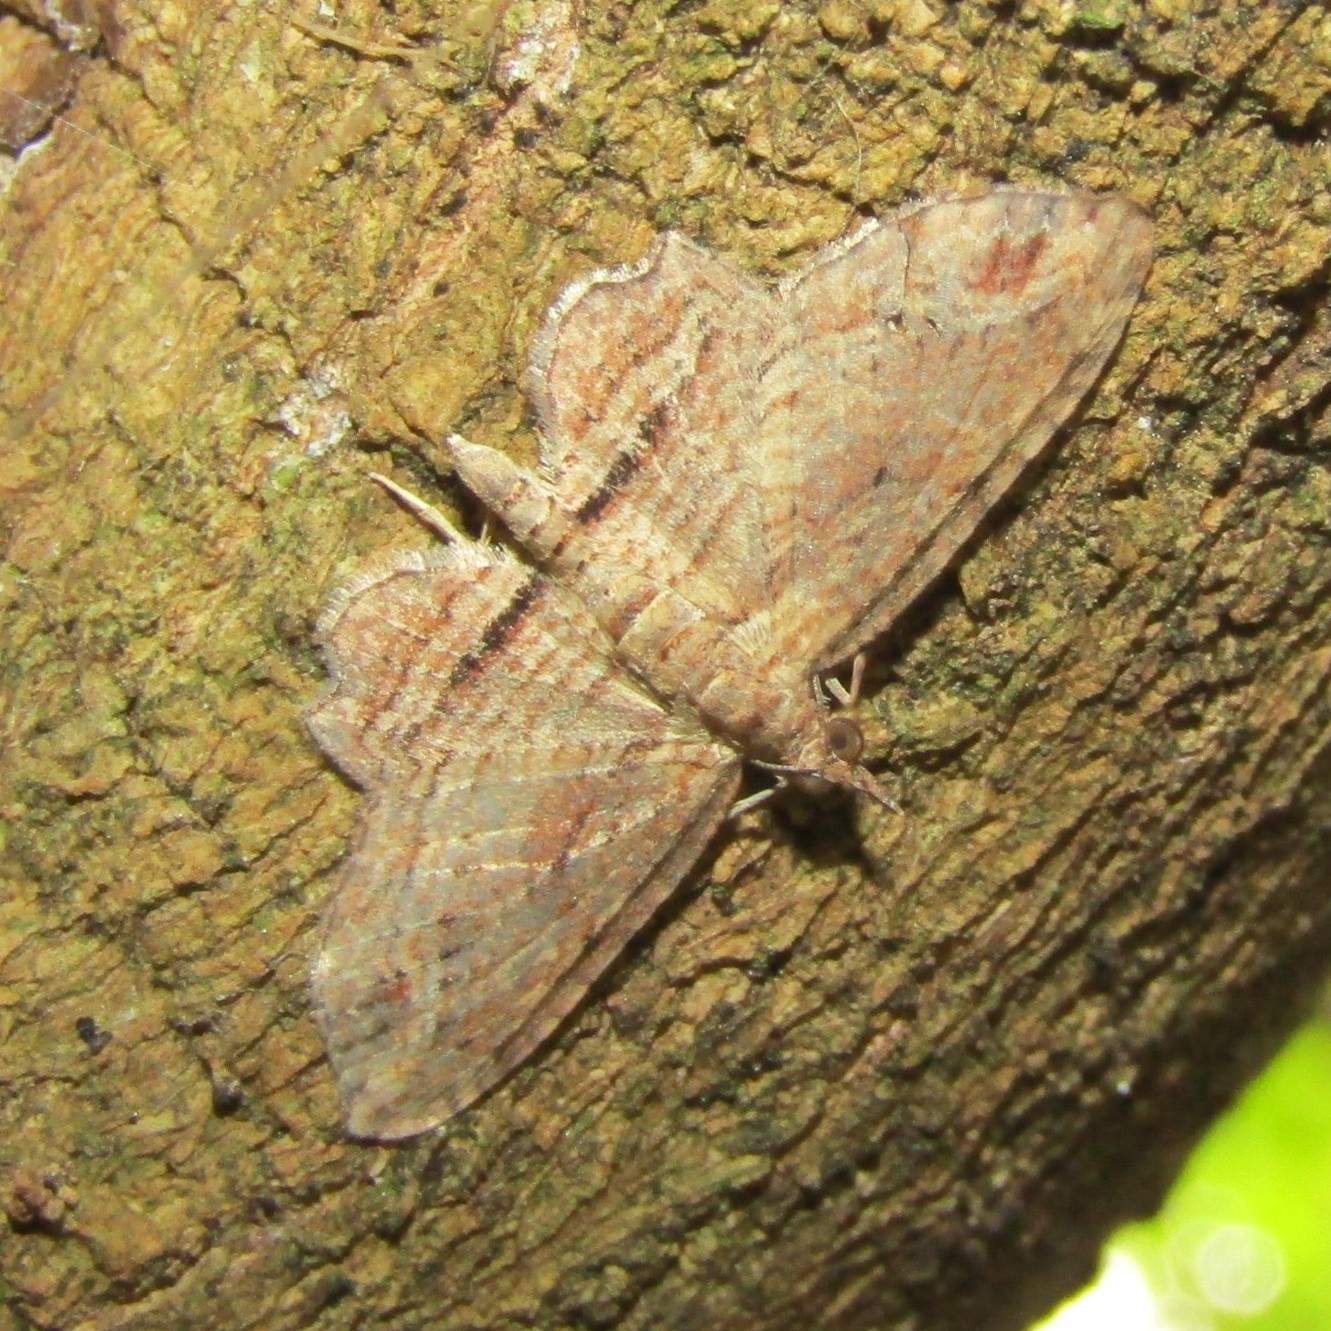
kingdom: Animalia
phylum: Arthropoda
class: Insecta
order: Lepidoptera
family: Geometridae
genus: Chloroclystis
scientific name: Chloroclystis filata
